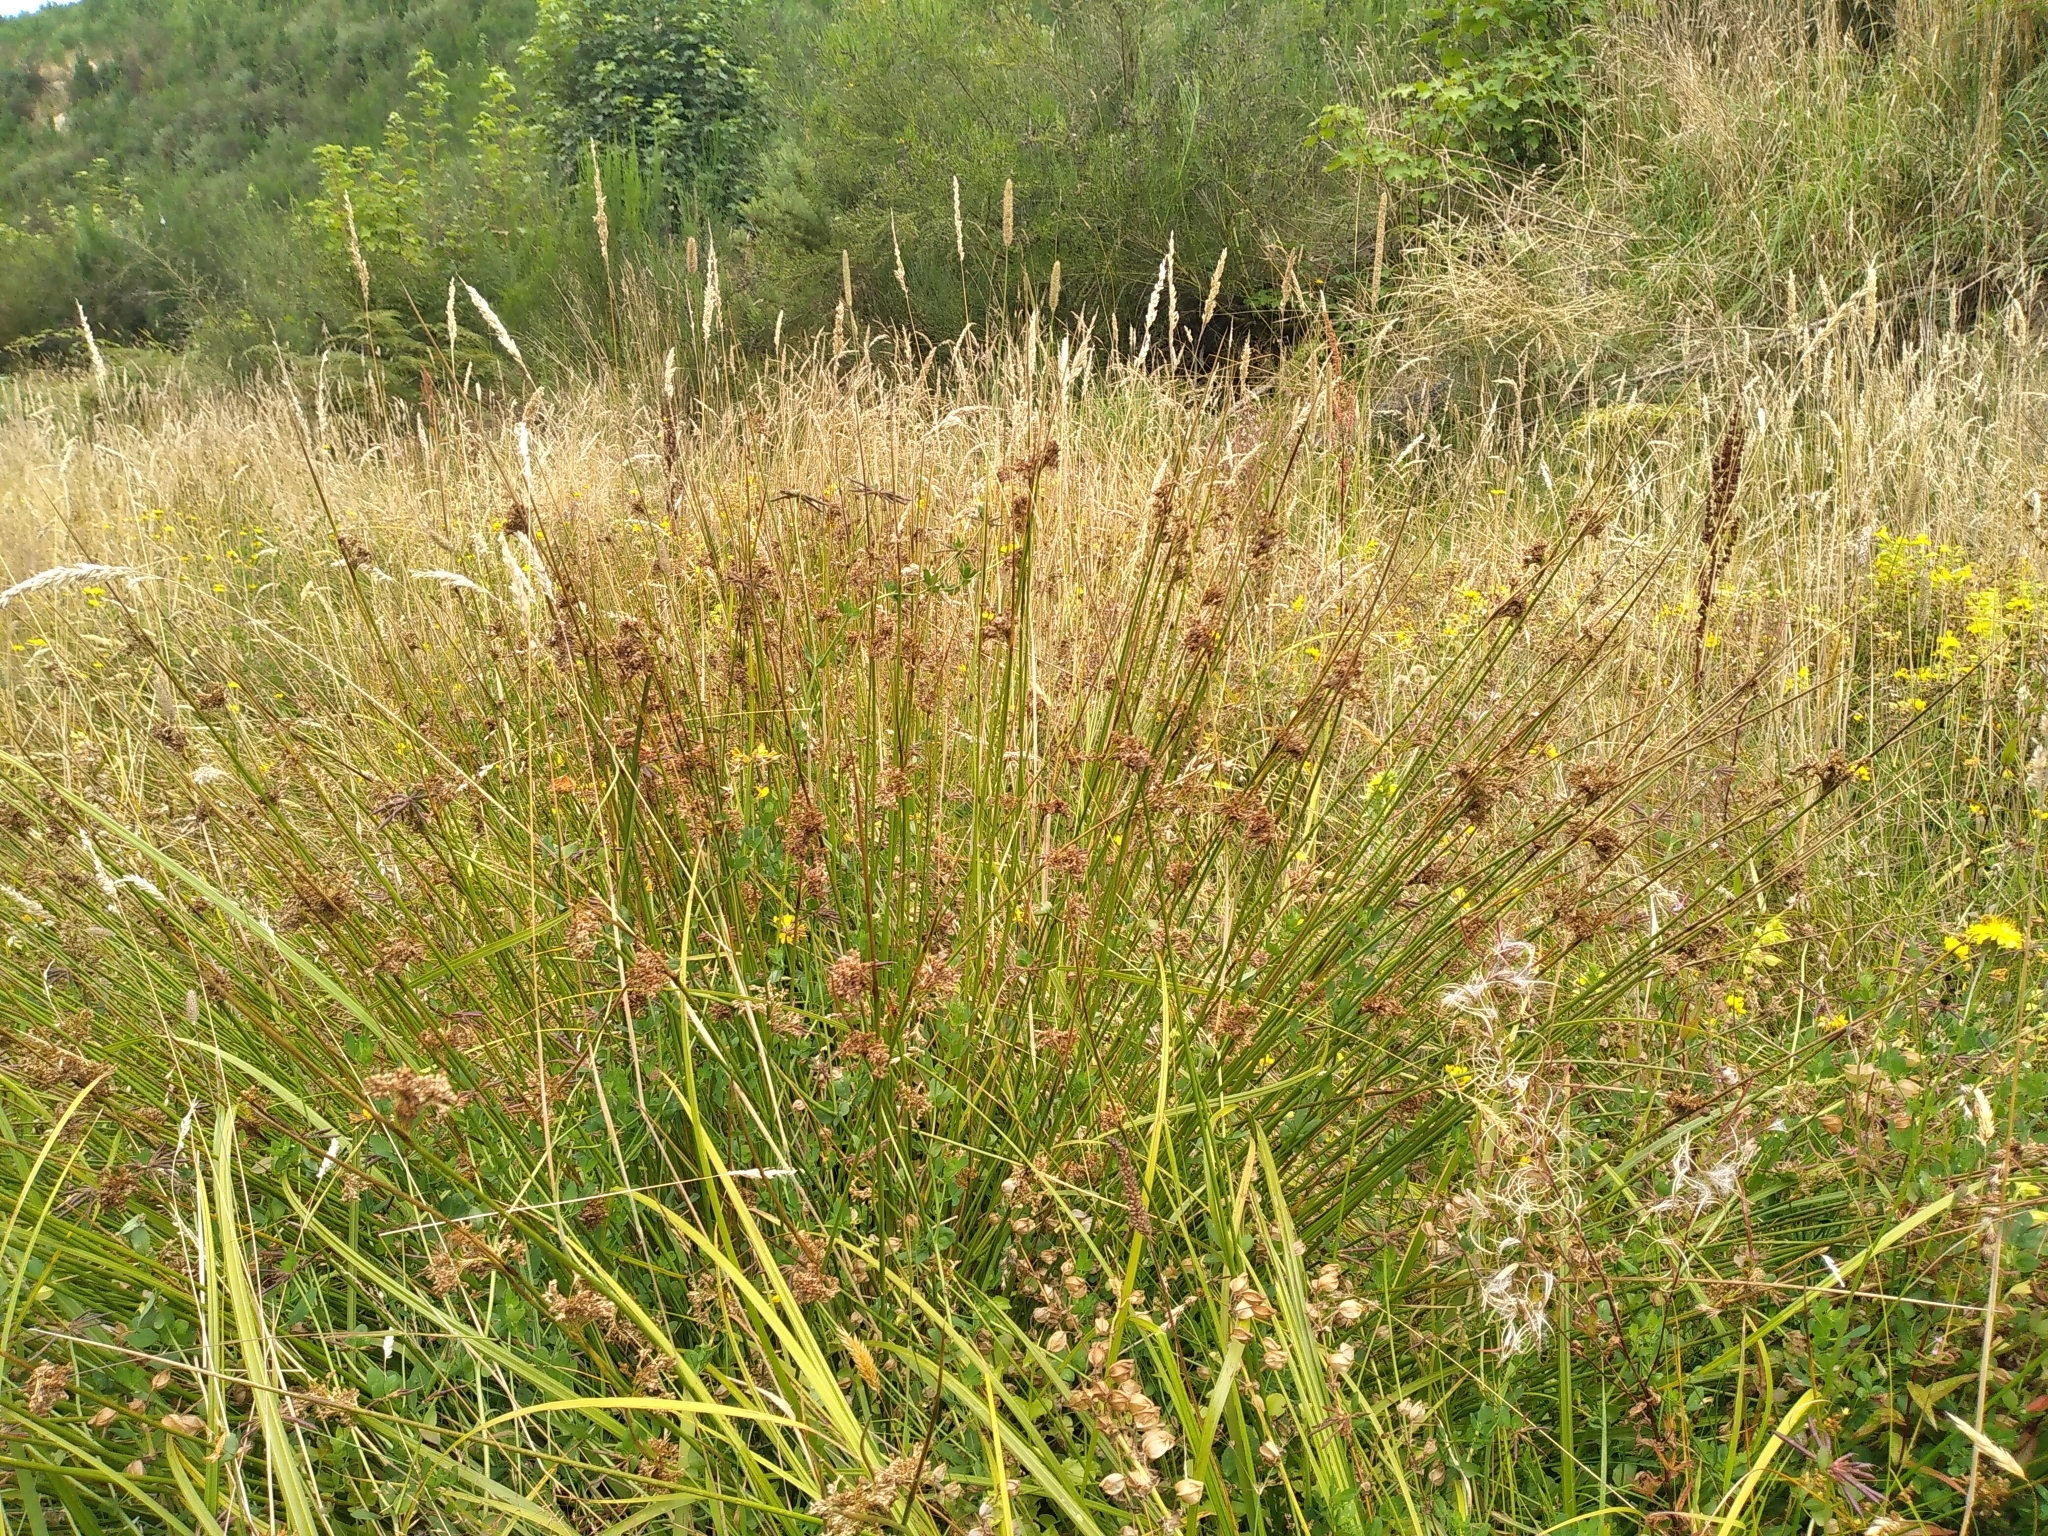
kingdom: Plantae
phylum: Tracheophyta
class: Liliopsida
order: Poales
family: Juncaceae
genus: Juncus
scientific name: Juncus effusus
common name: Soft rush
